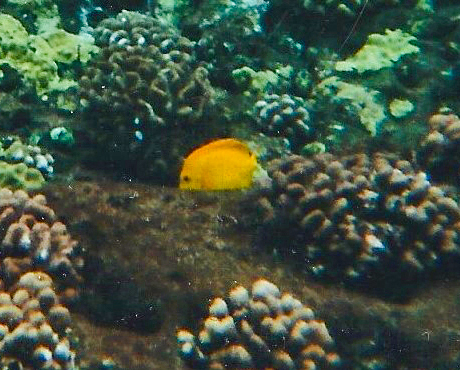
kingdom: Animalia
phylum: Chordata
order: Perciformes
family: Acanthuridae
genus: Zebrasoma
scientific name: Zebrasoma flavescens
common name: Yellow tang
